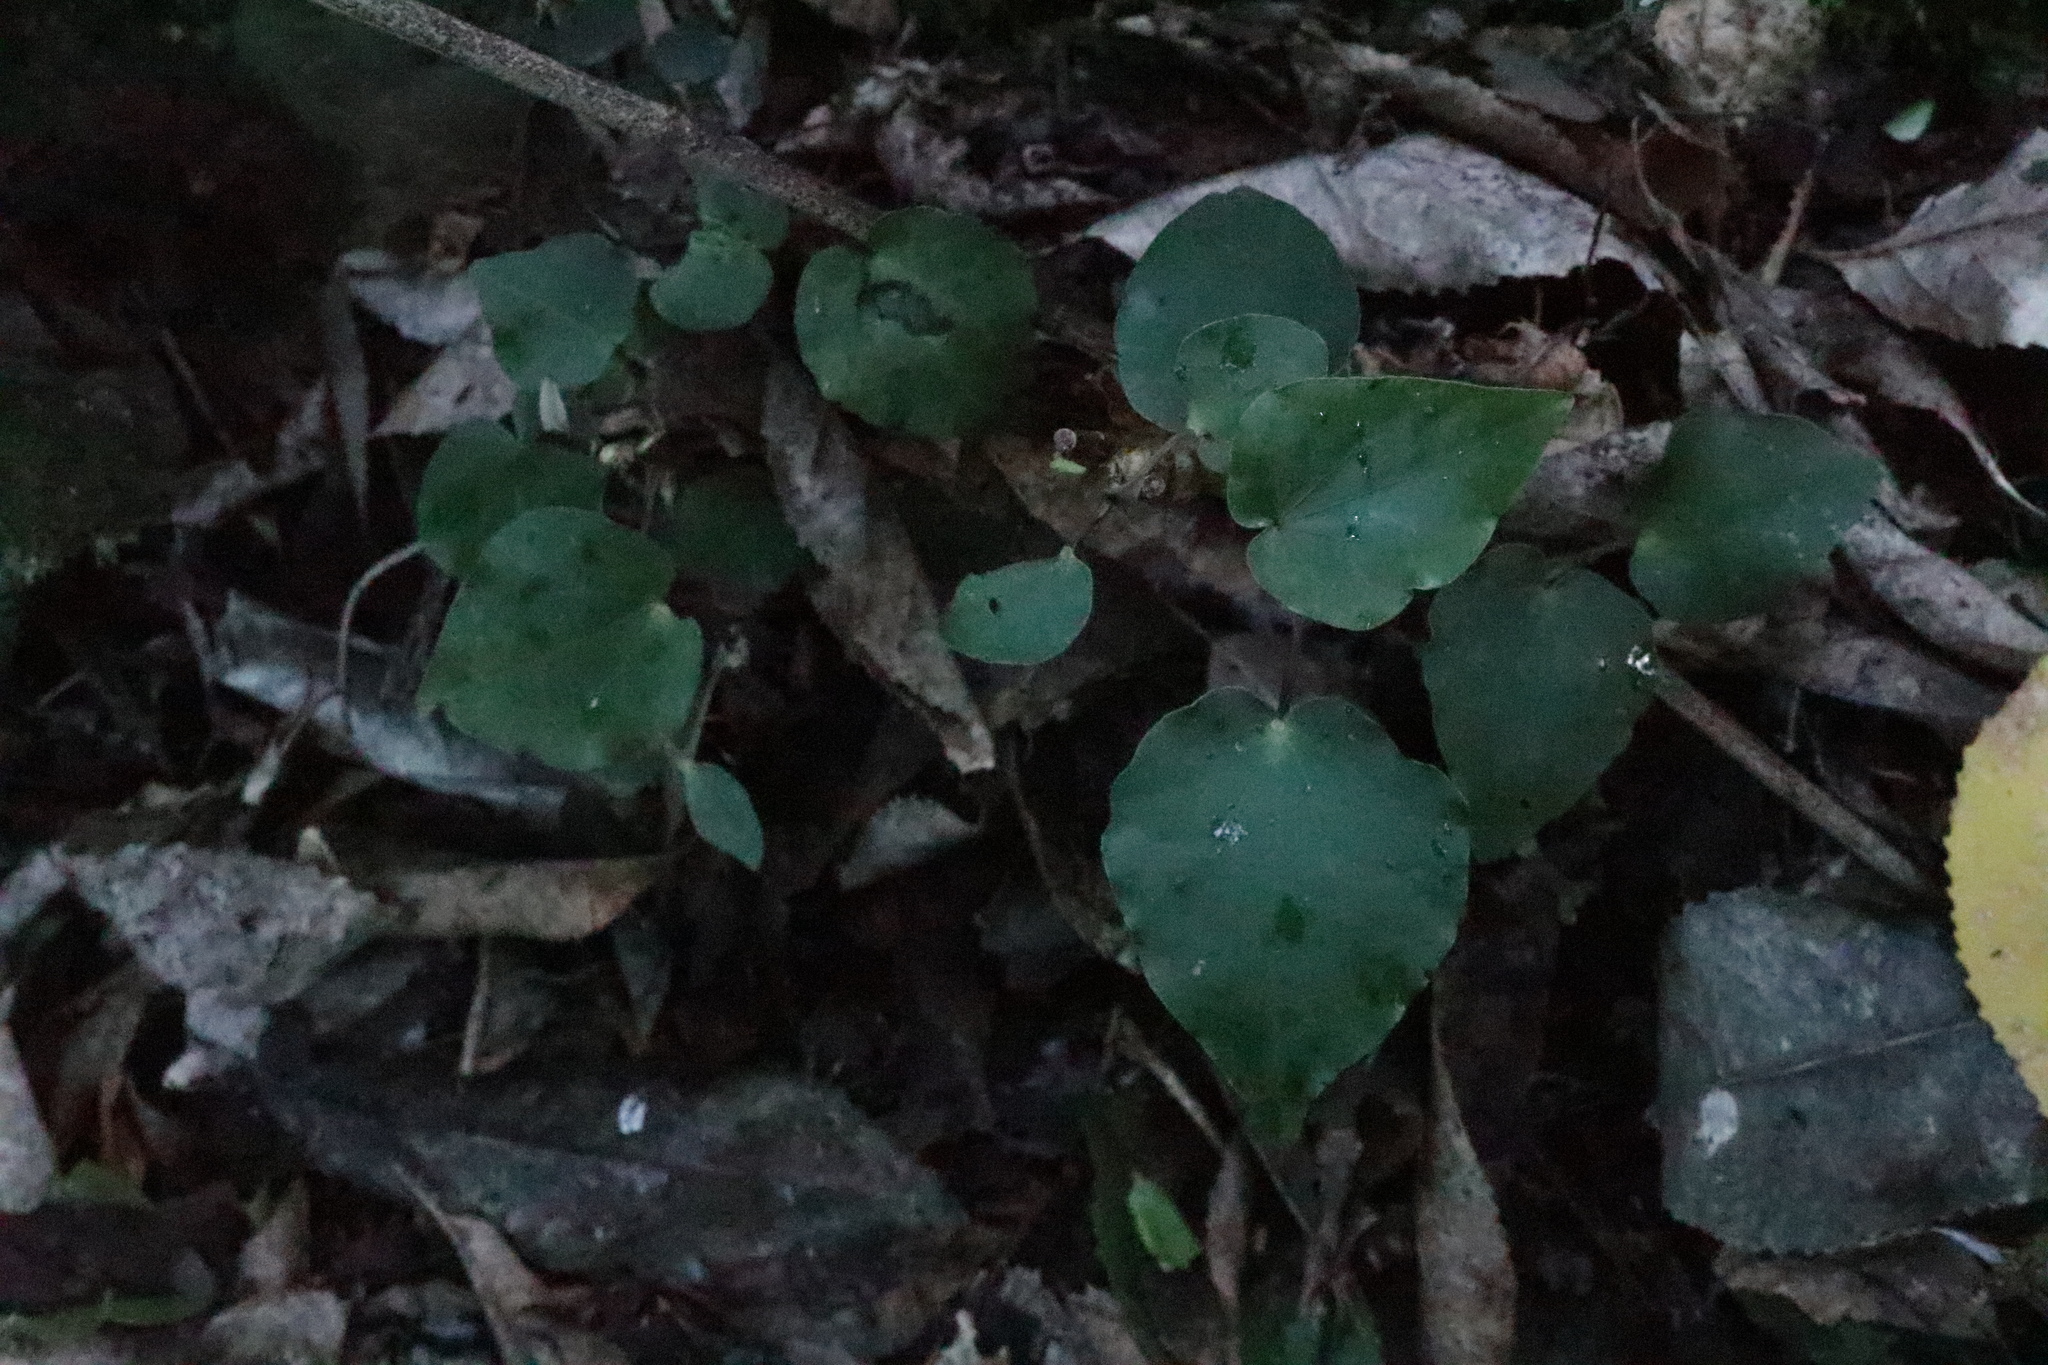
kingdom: Plantae
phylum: Tracheophyta
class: Magnoliopsida
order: Piperales
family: Piperaceae
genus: Macropiper
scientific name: Macropiper excelsum
